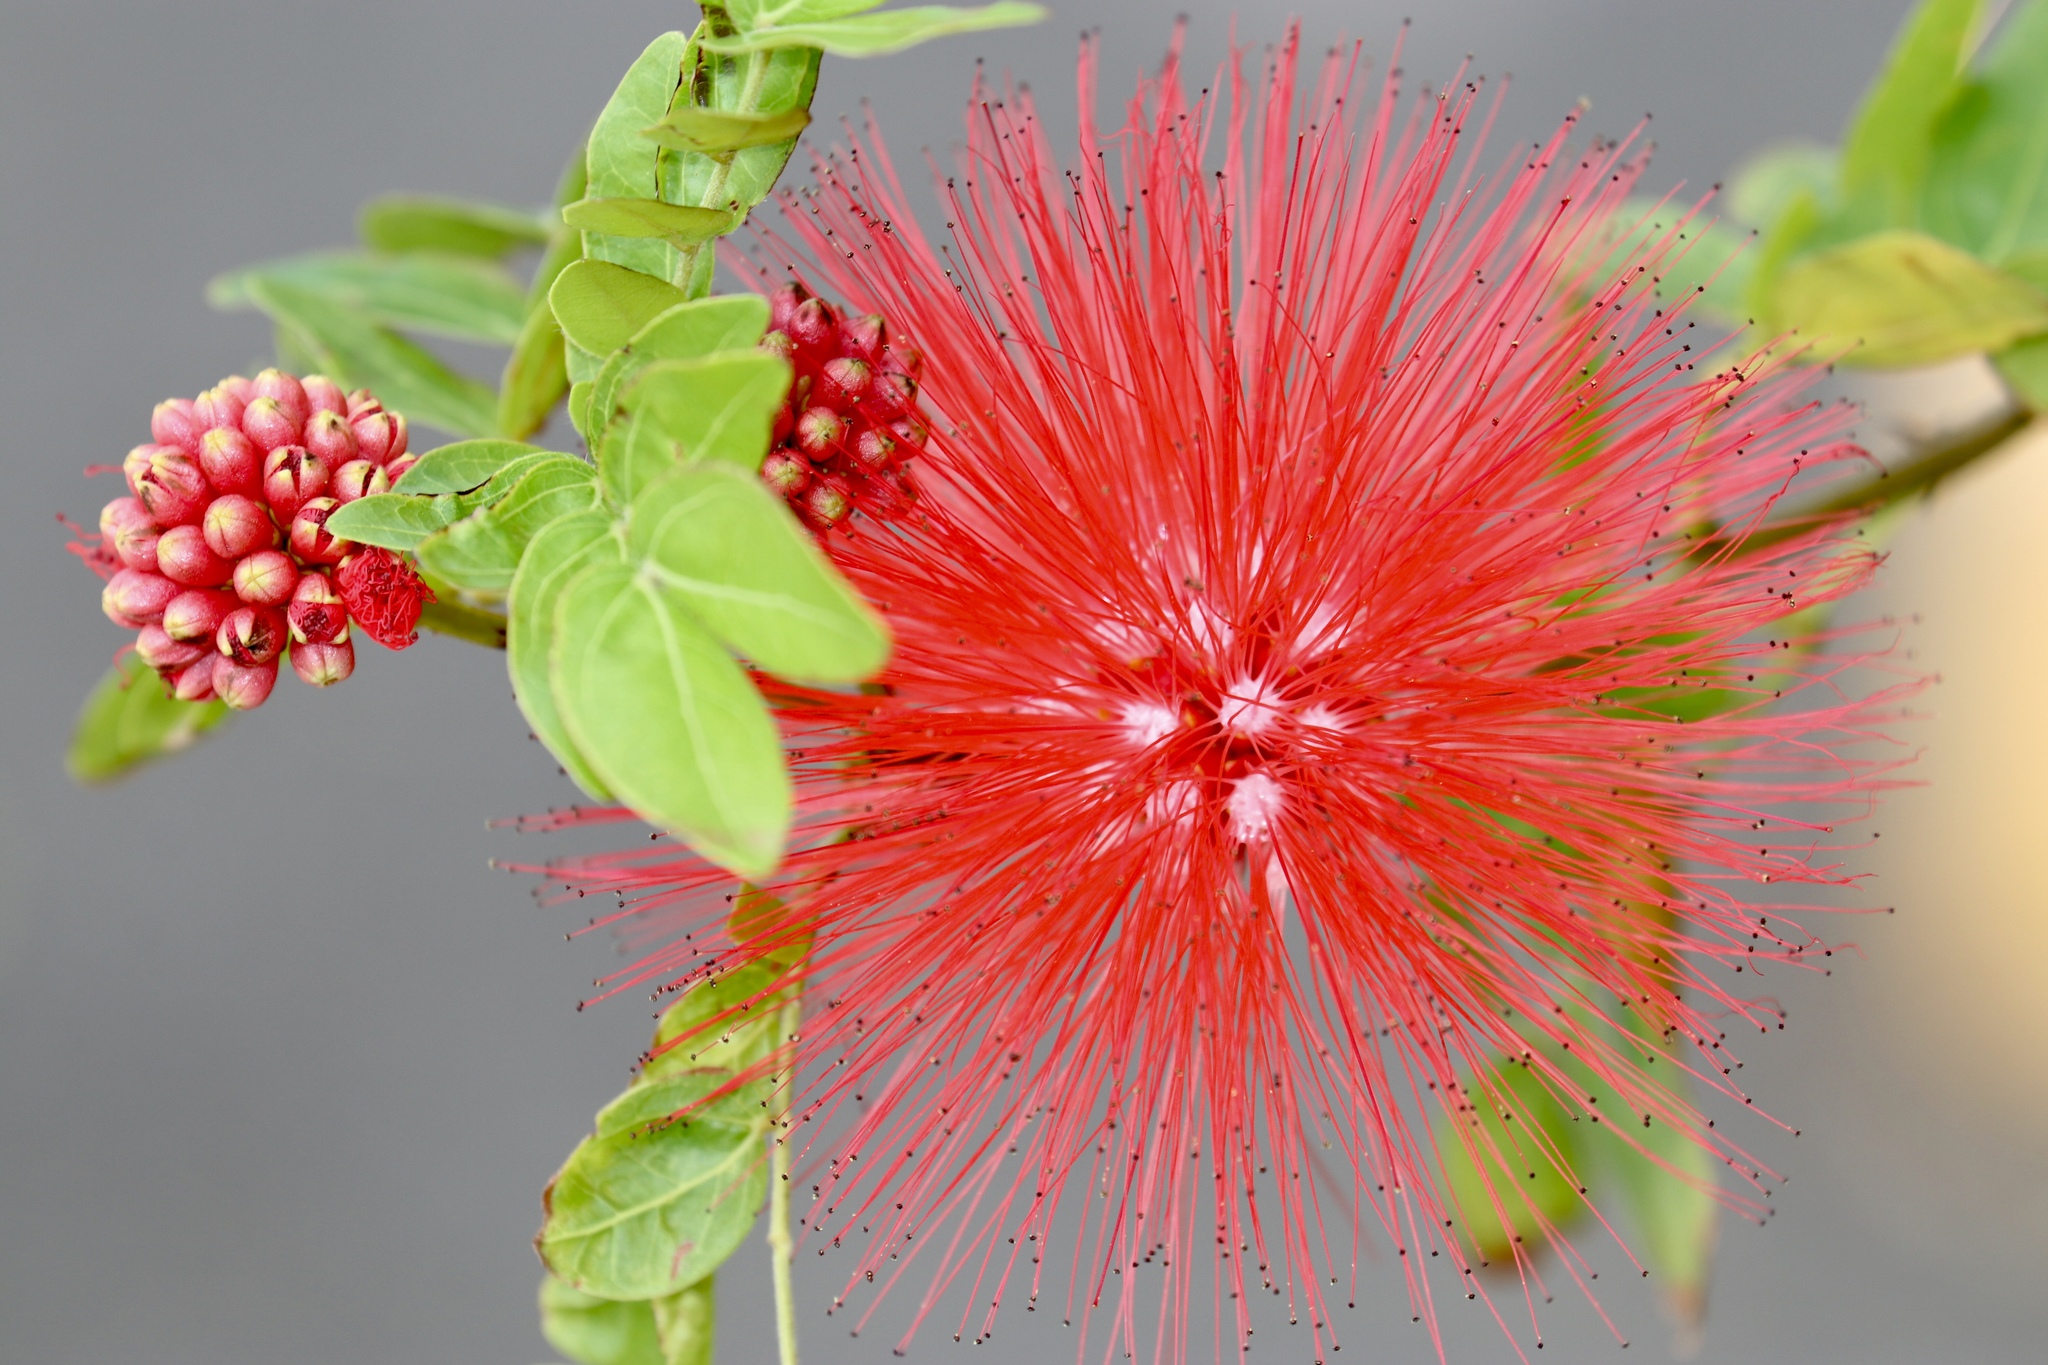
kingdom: Plantae
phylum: Tracheophyta
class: Magnoliopsida
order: Fabales
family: Fabaceae
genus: Calliandra
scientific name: Calliandra haematocephala
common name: Blood red tassel flower
